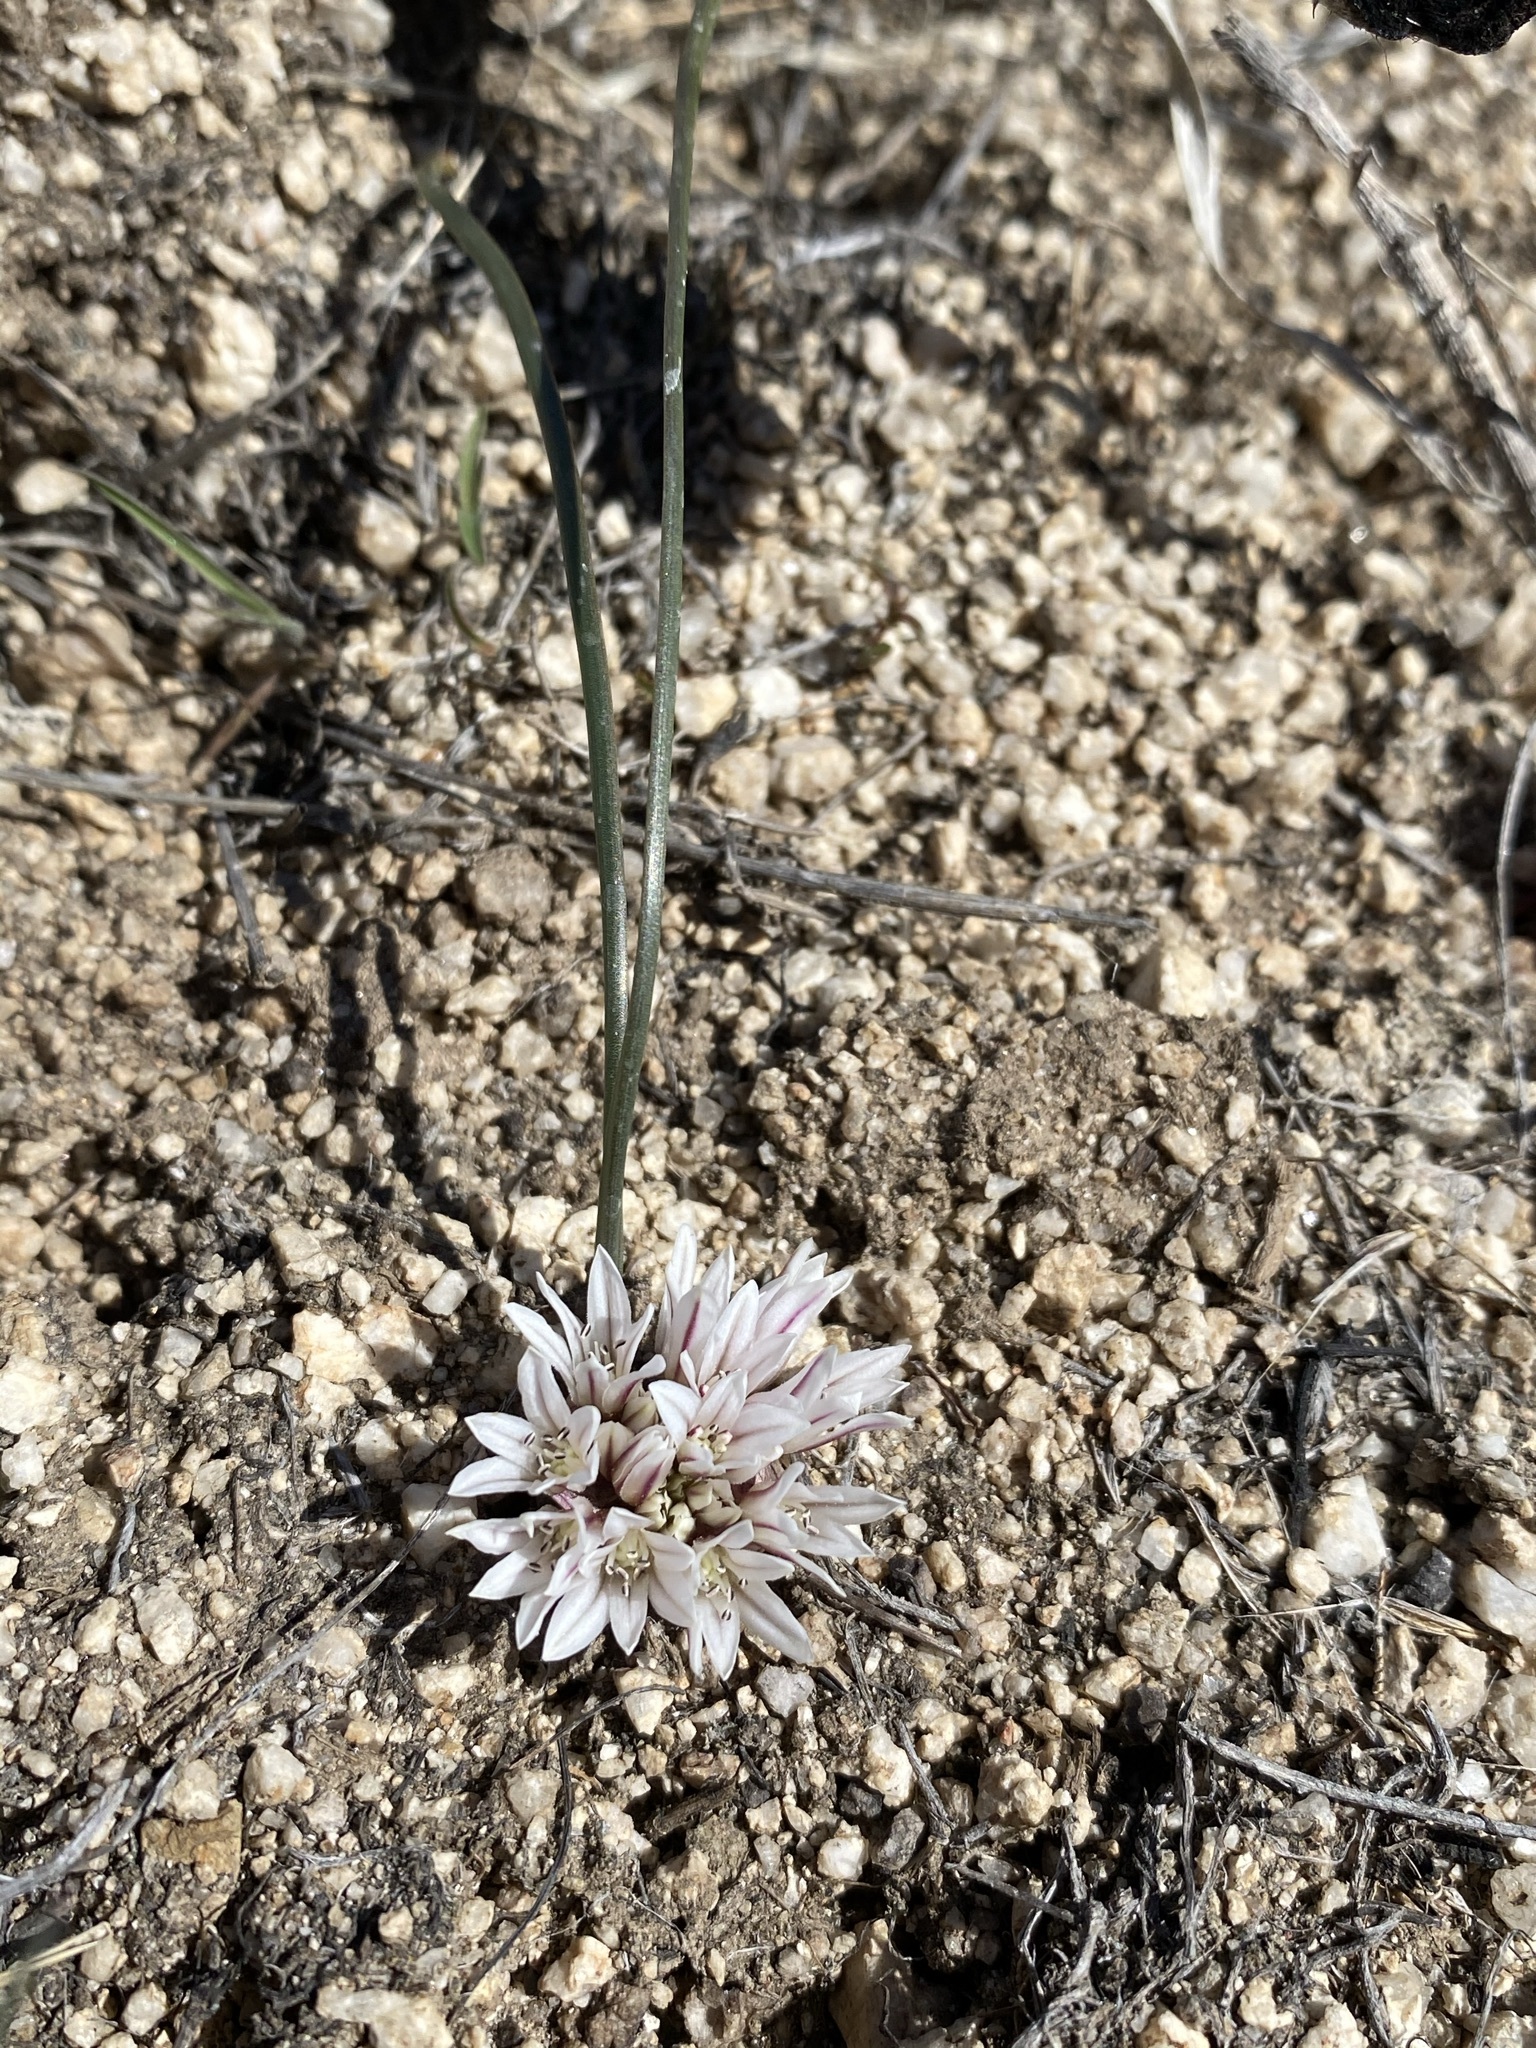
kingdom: Plantae
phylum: Tracheophyta
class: Liliopsida
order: Asparagales
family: Amaryllidaceae
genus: Allium
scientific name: Allium simillimum
